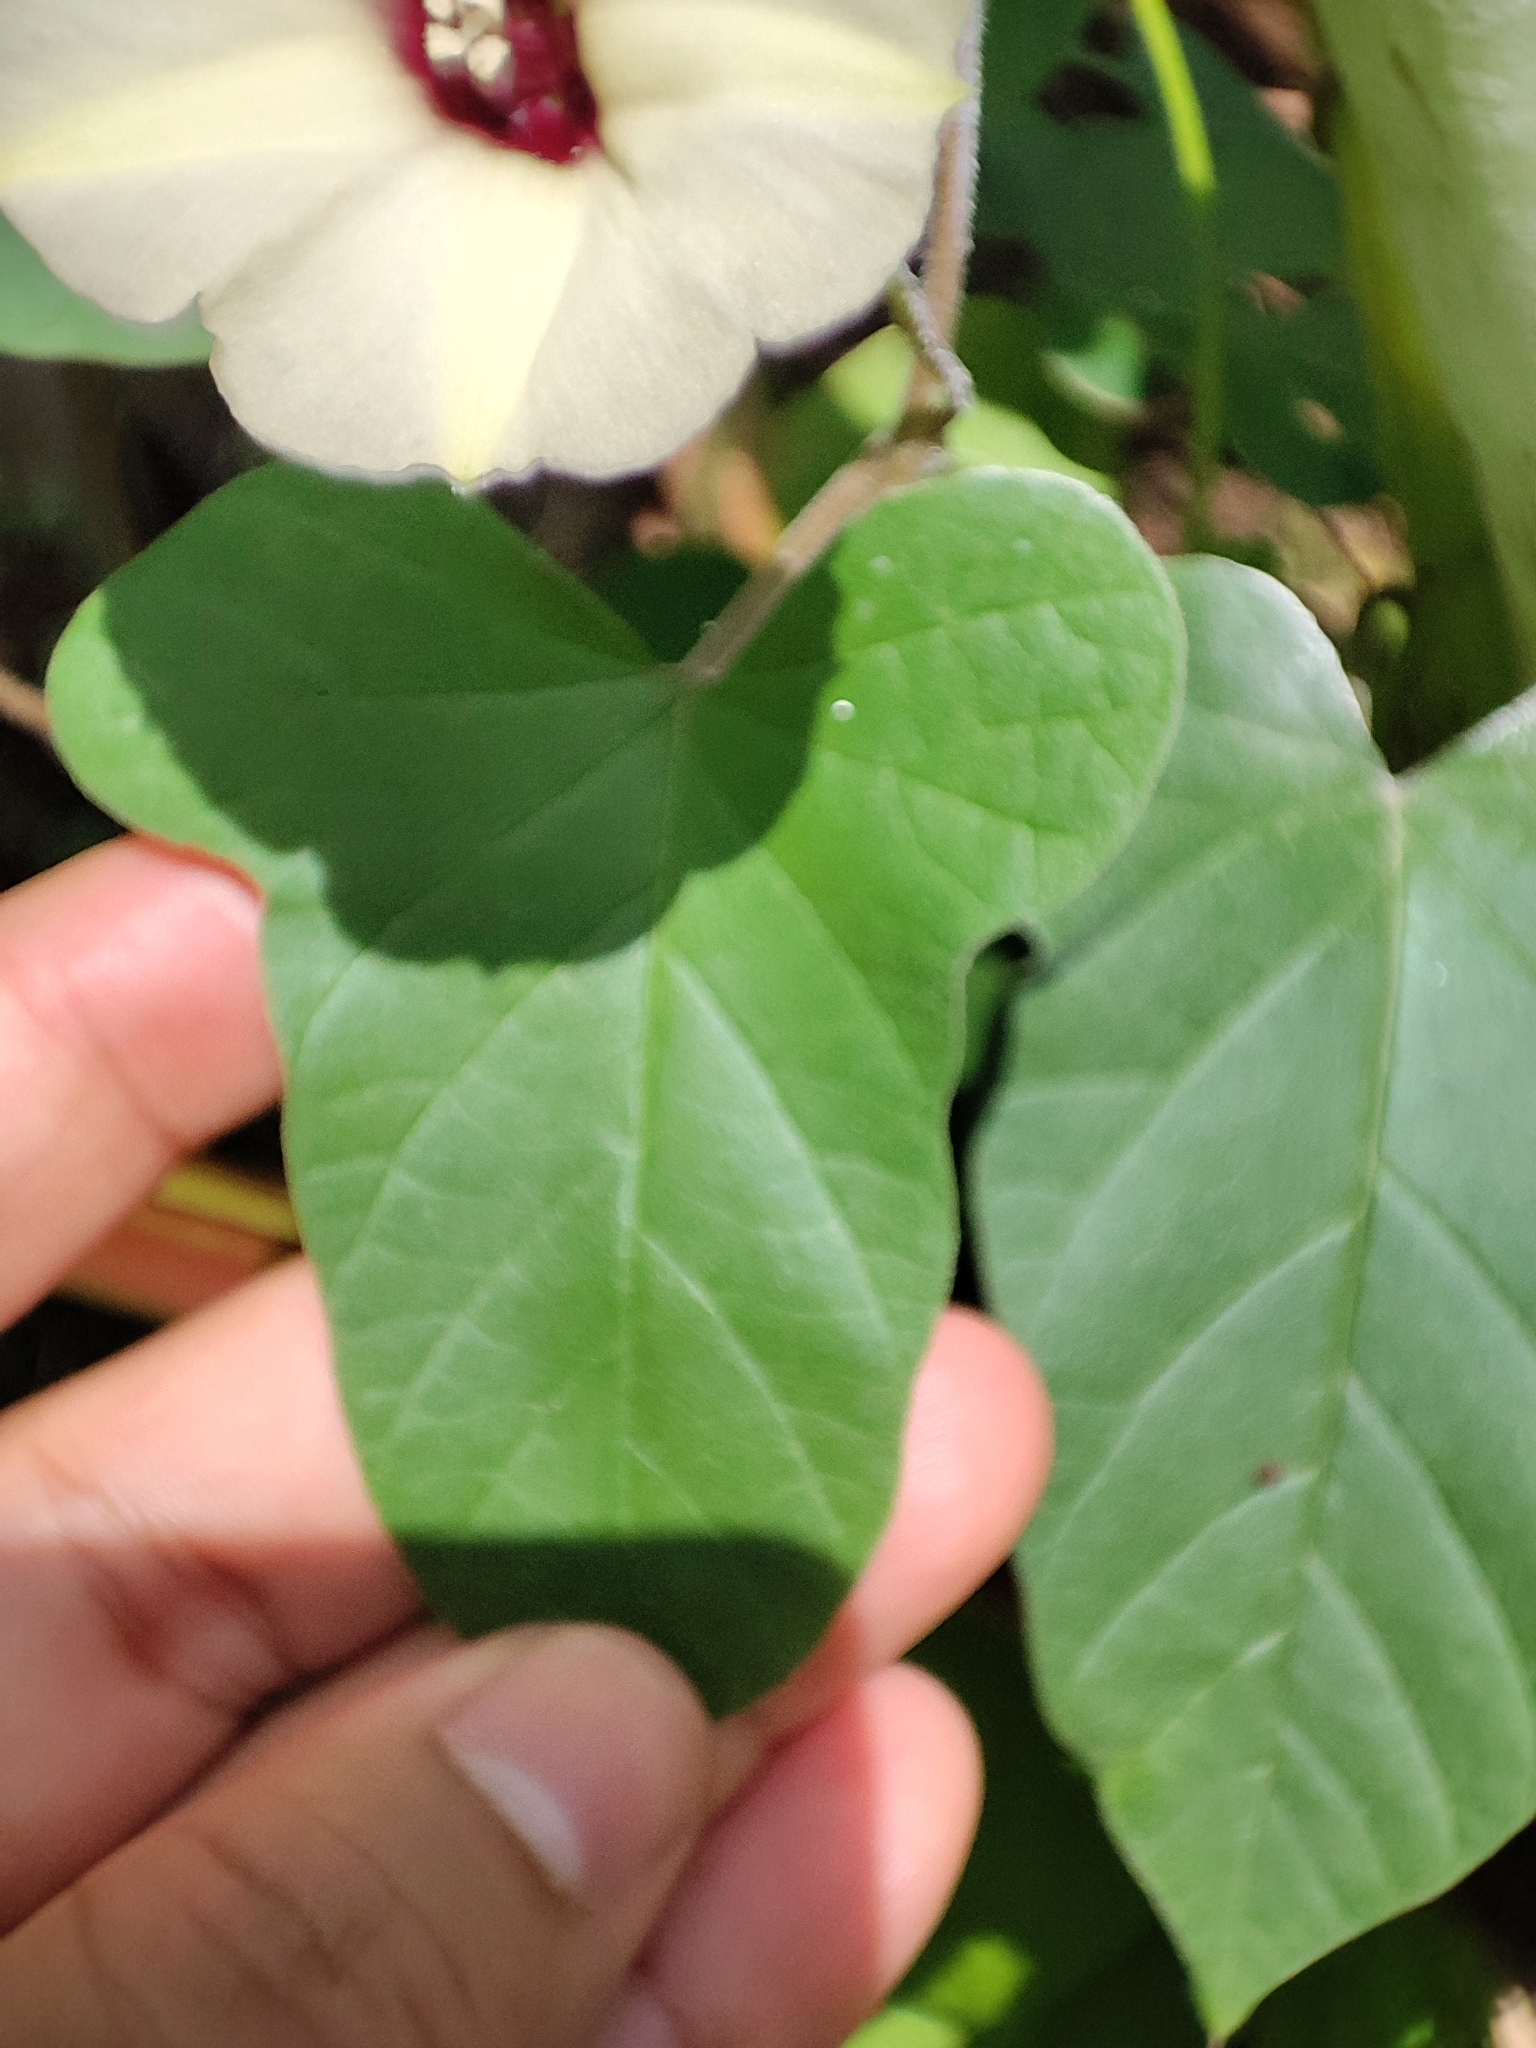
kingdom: Plantae
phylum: Tracheophyta
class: Magnoliopsida
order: Solanales
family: Convolvulaceae
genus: Hewittia
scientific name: Hewittia malabarica
